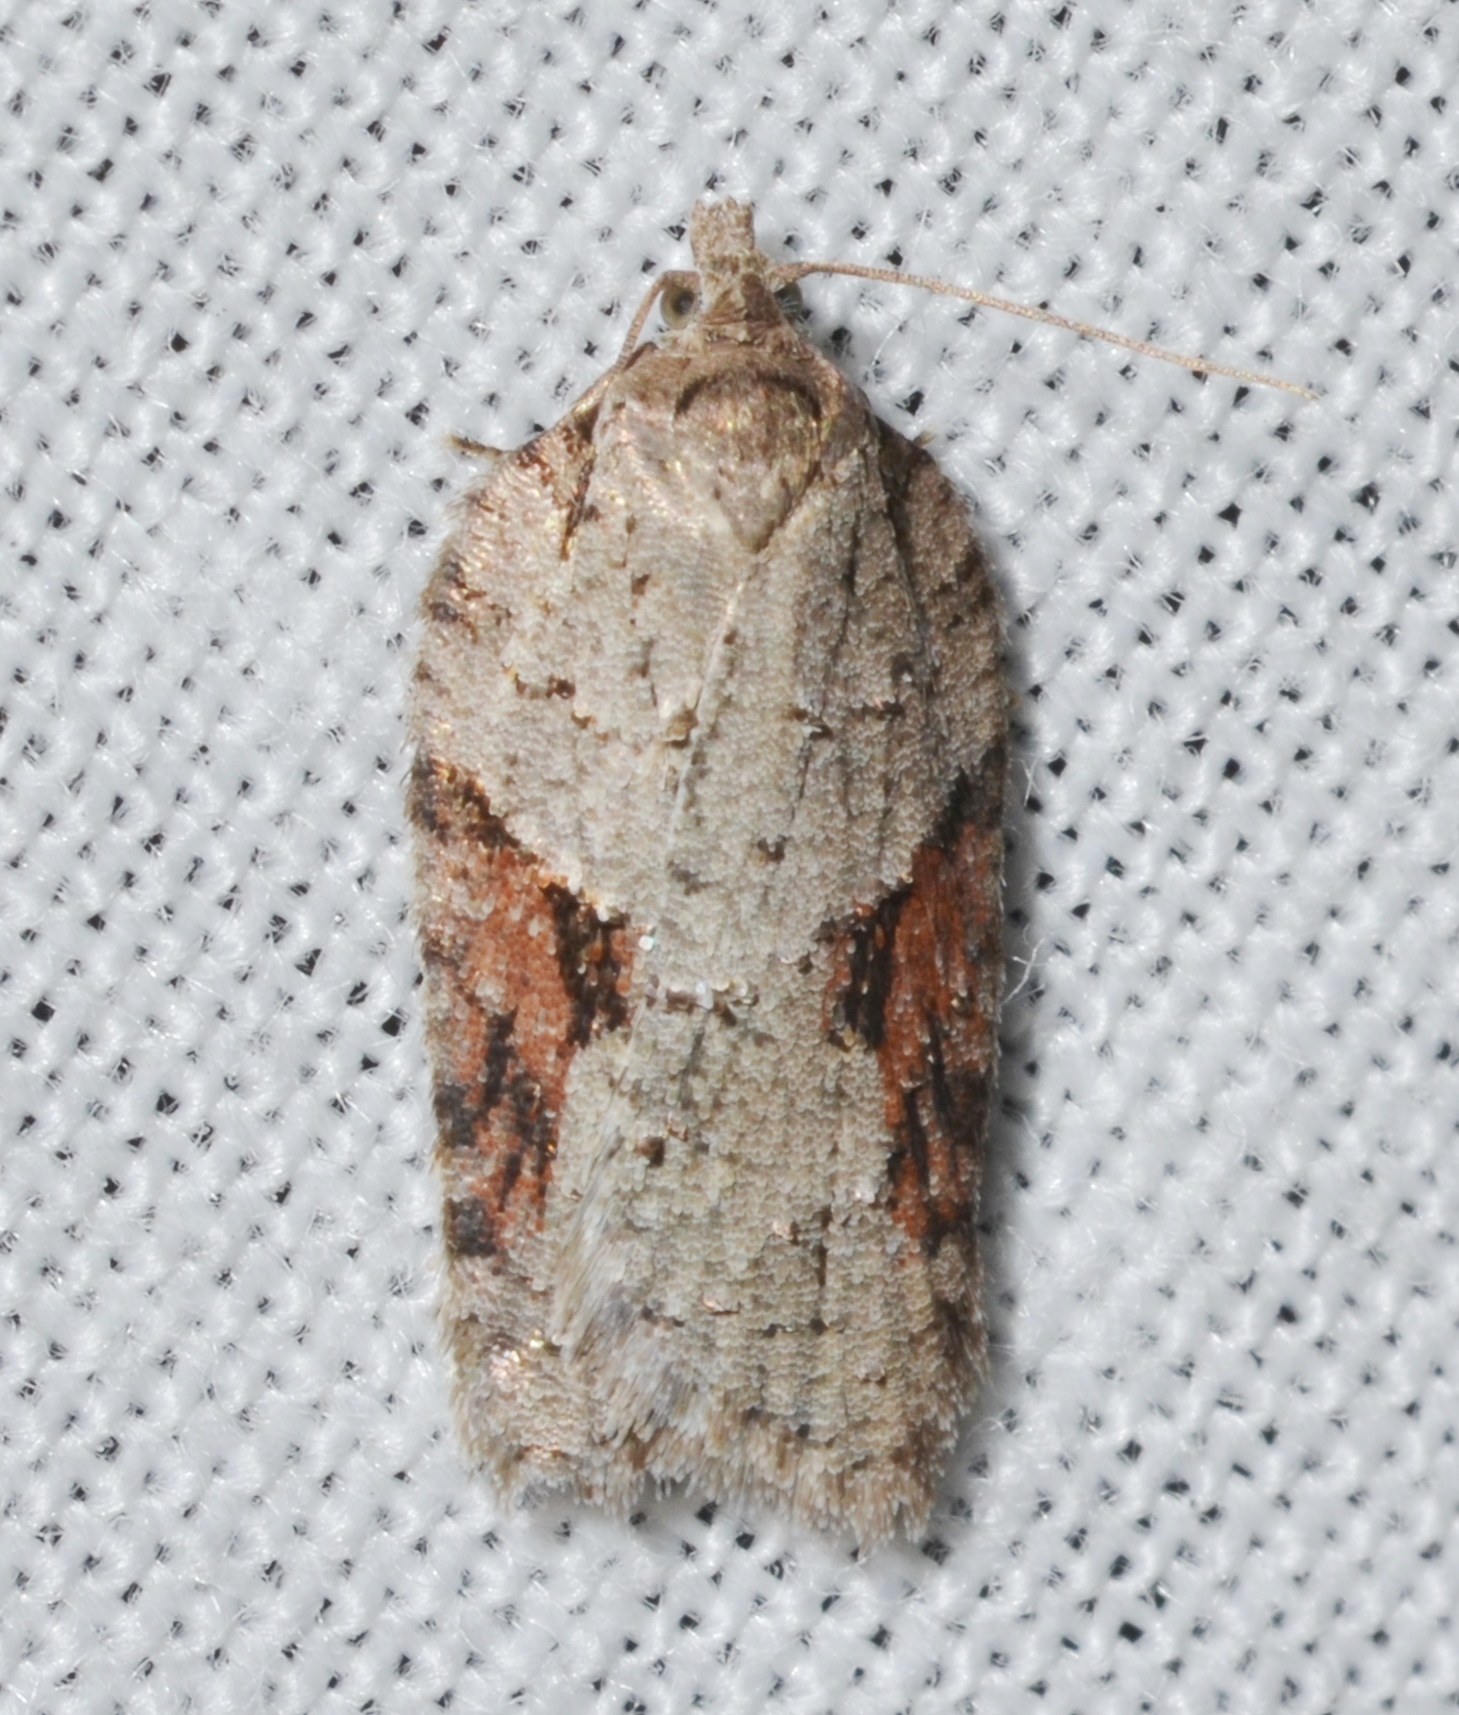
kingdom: Animalia
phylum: Arthropoda
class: Insecta
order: Lepidoptera
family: Tortricidae
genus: Acleris
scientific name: Acleris ptychogrammos
